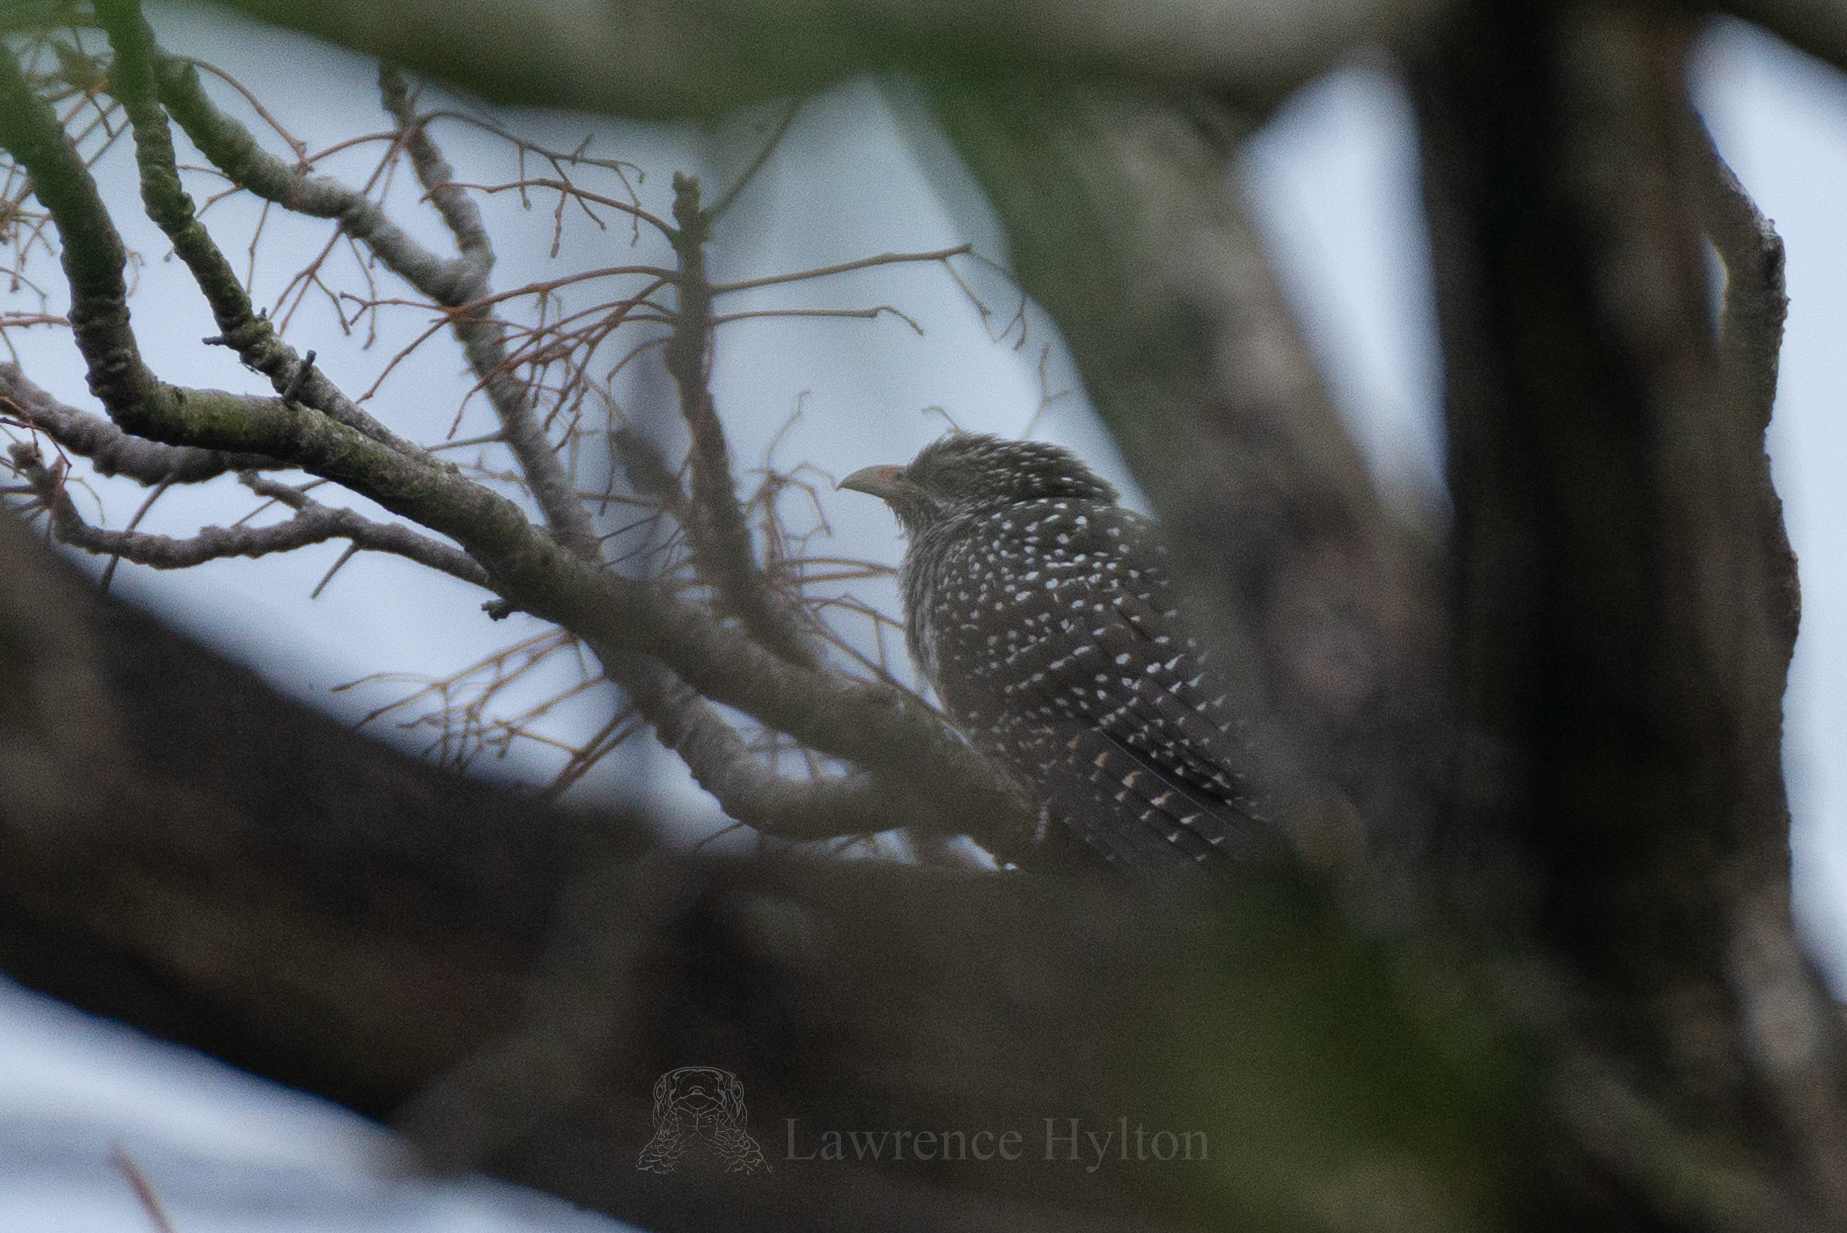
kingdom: Animalia
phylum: Chordata
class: Aves
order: Cuculiformes
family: Cuculidae
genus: Eudynamys
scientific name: Eudynamys scolopaceus
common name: Asian koel
